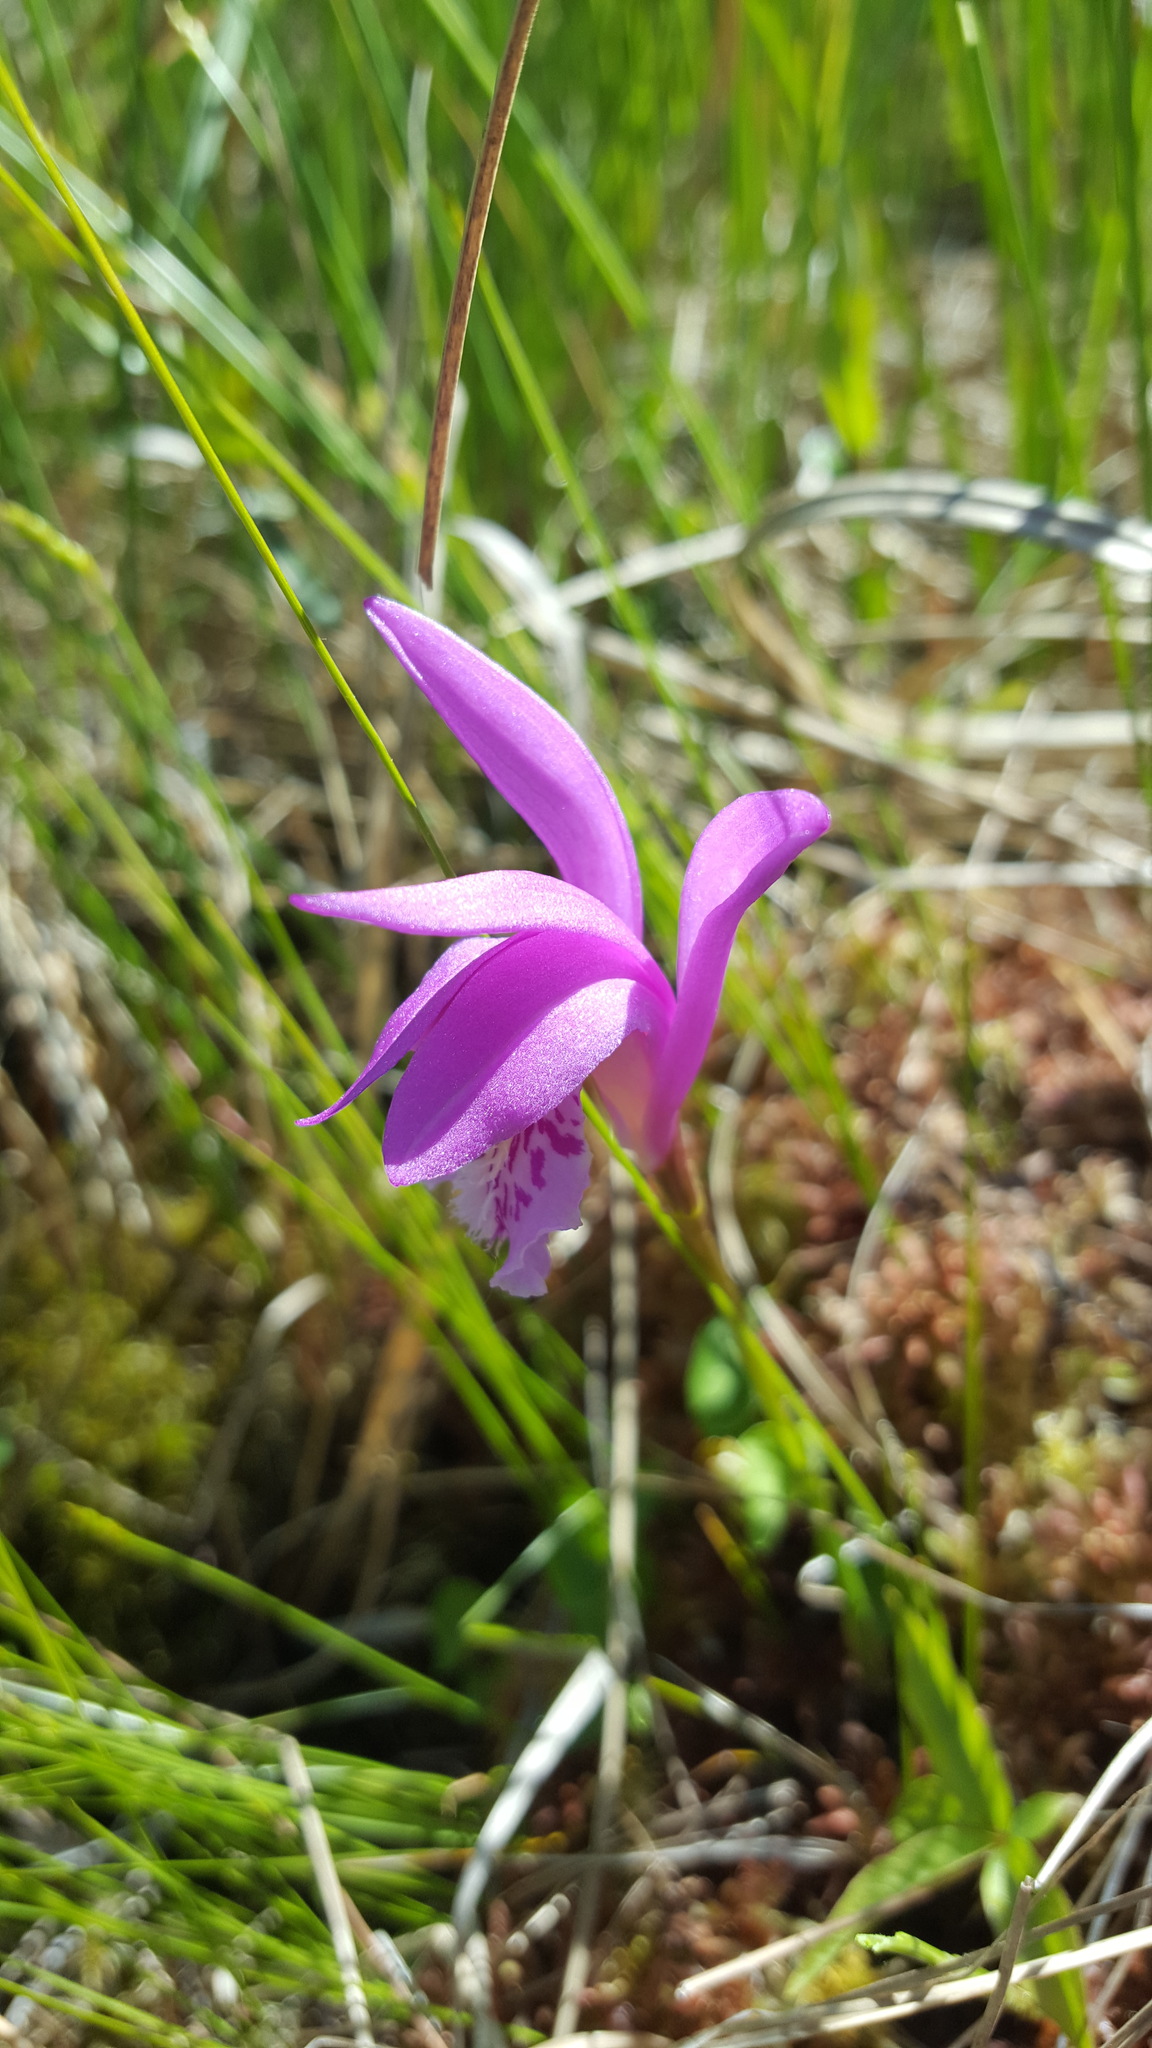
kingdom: Plantae
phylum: Tracheophyta
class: Liliopsida
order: Asparagales
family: Orchidaceae
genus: Arethusa
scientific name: Arethusa bulbosa
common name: Arethusa
